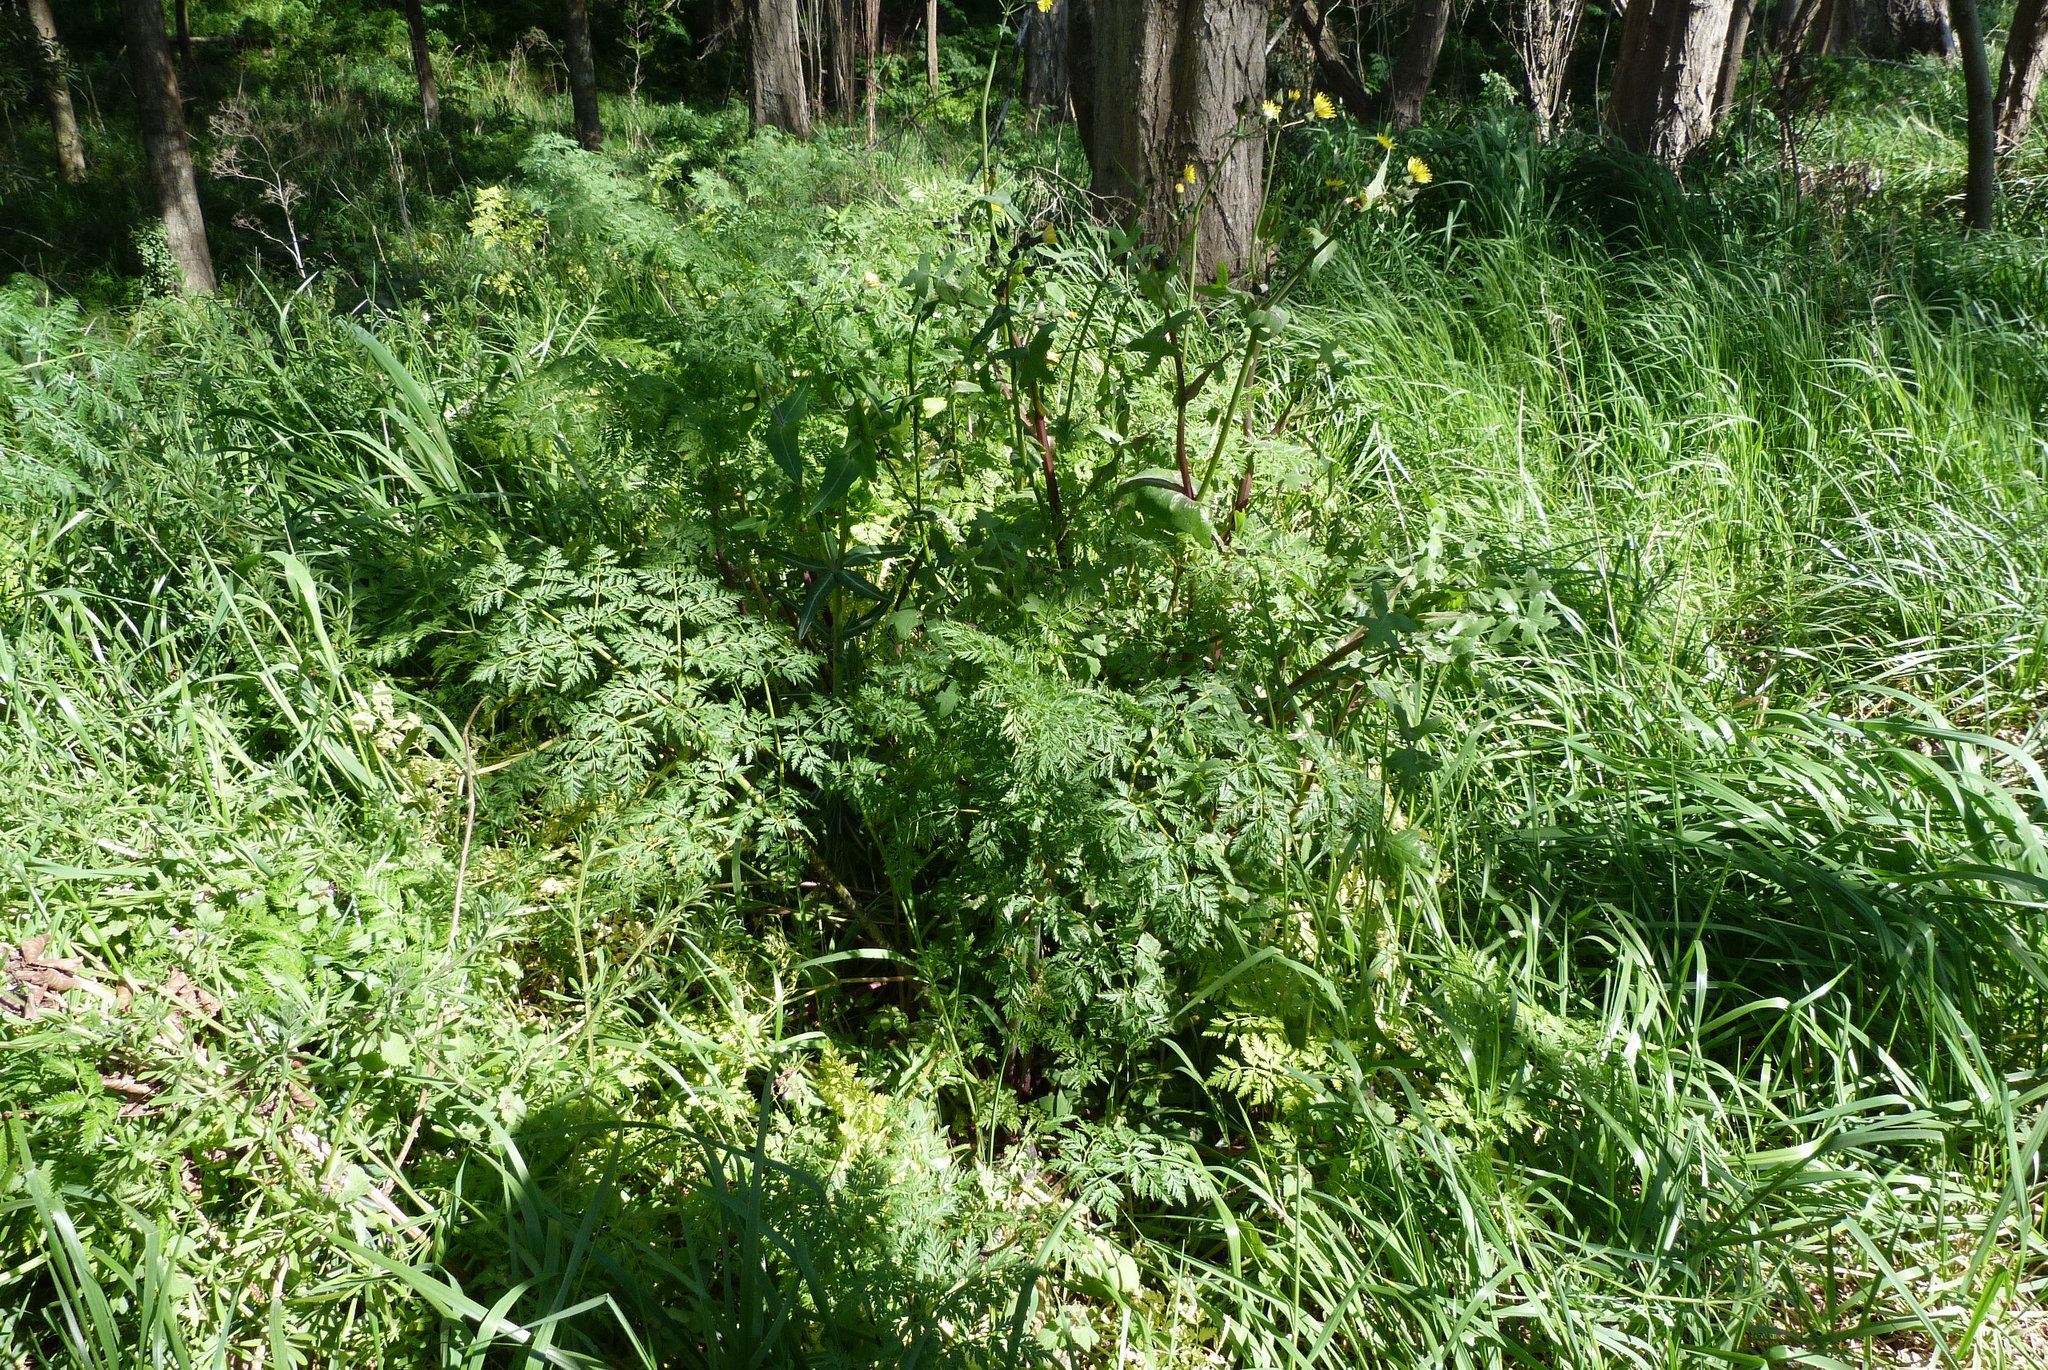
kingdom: Plantae
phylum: Tracheophyta
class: Magnoliopsida
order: Apiales
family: Apiaceae
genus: Conium
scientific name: Conium maculatum
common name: Hemlock
